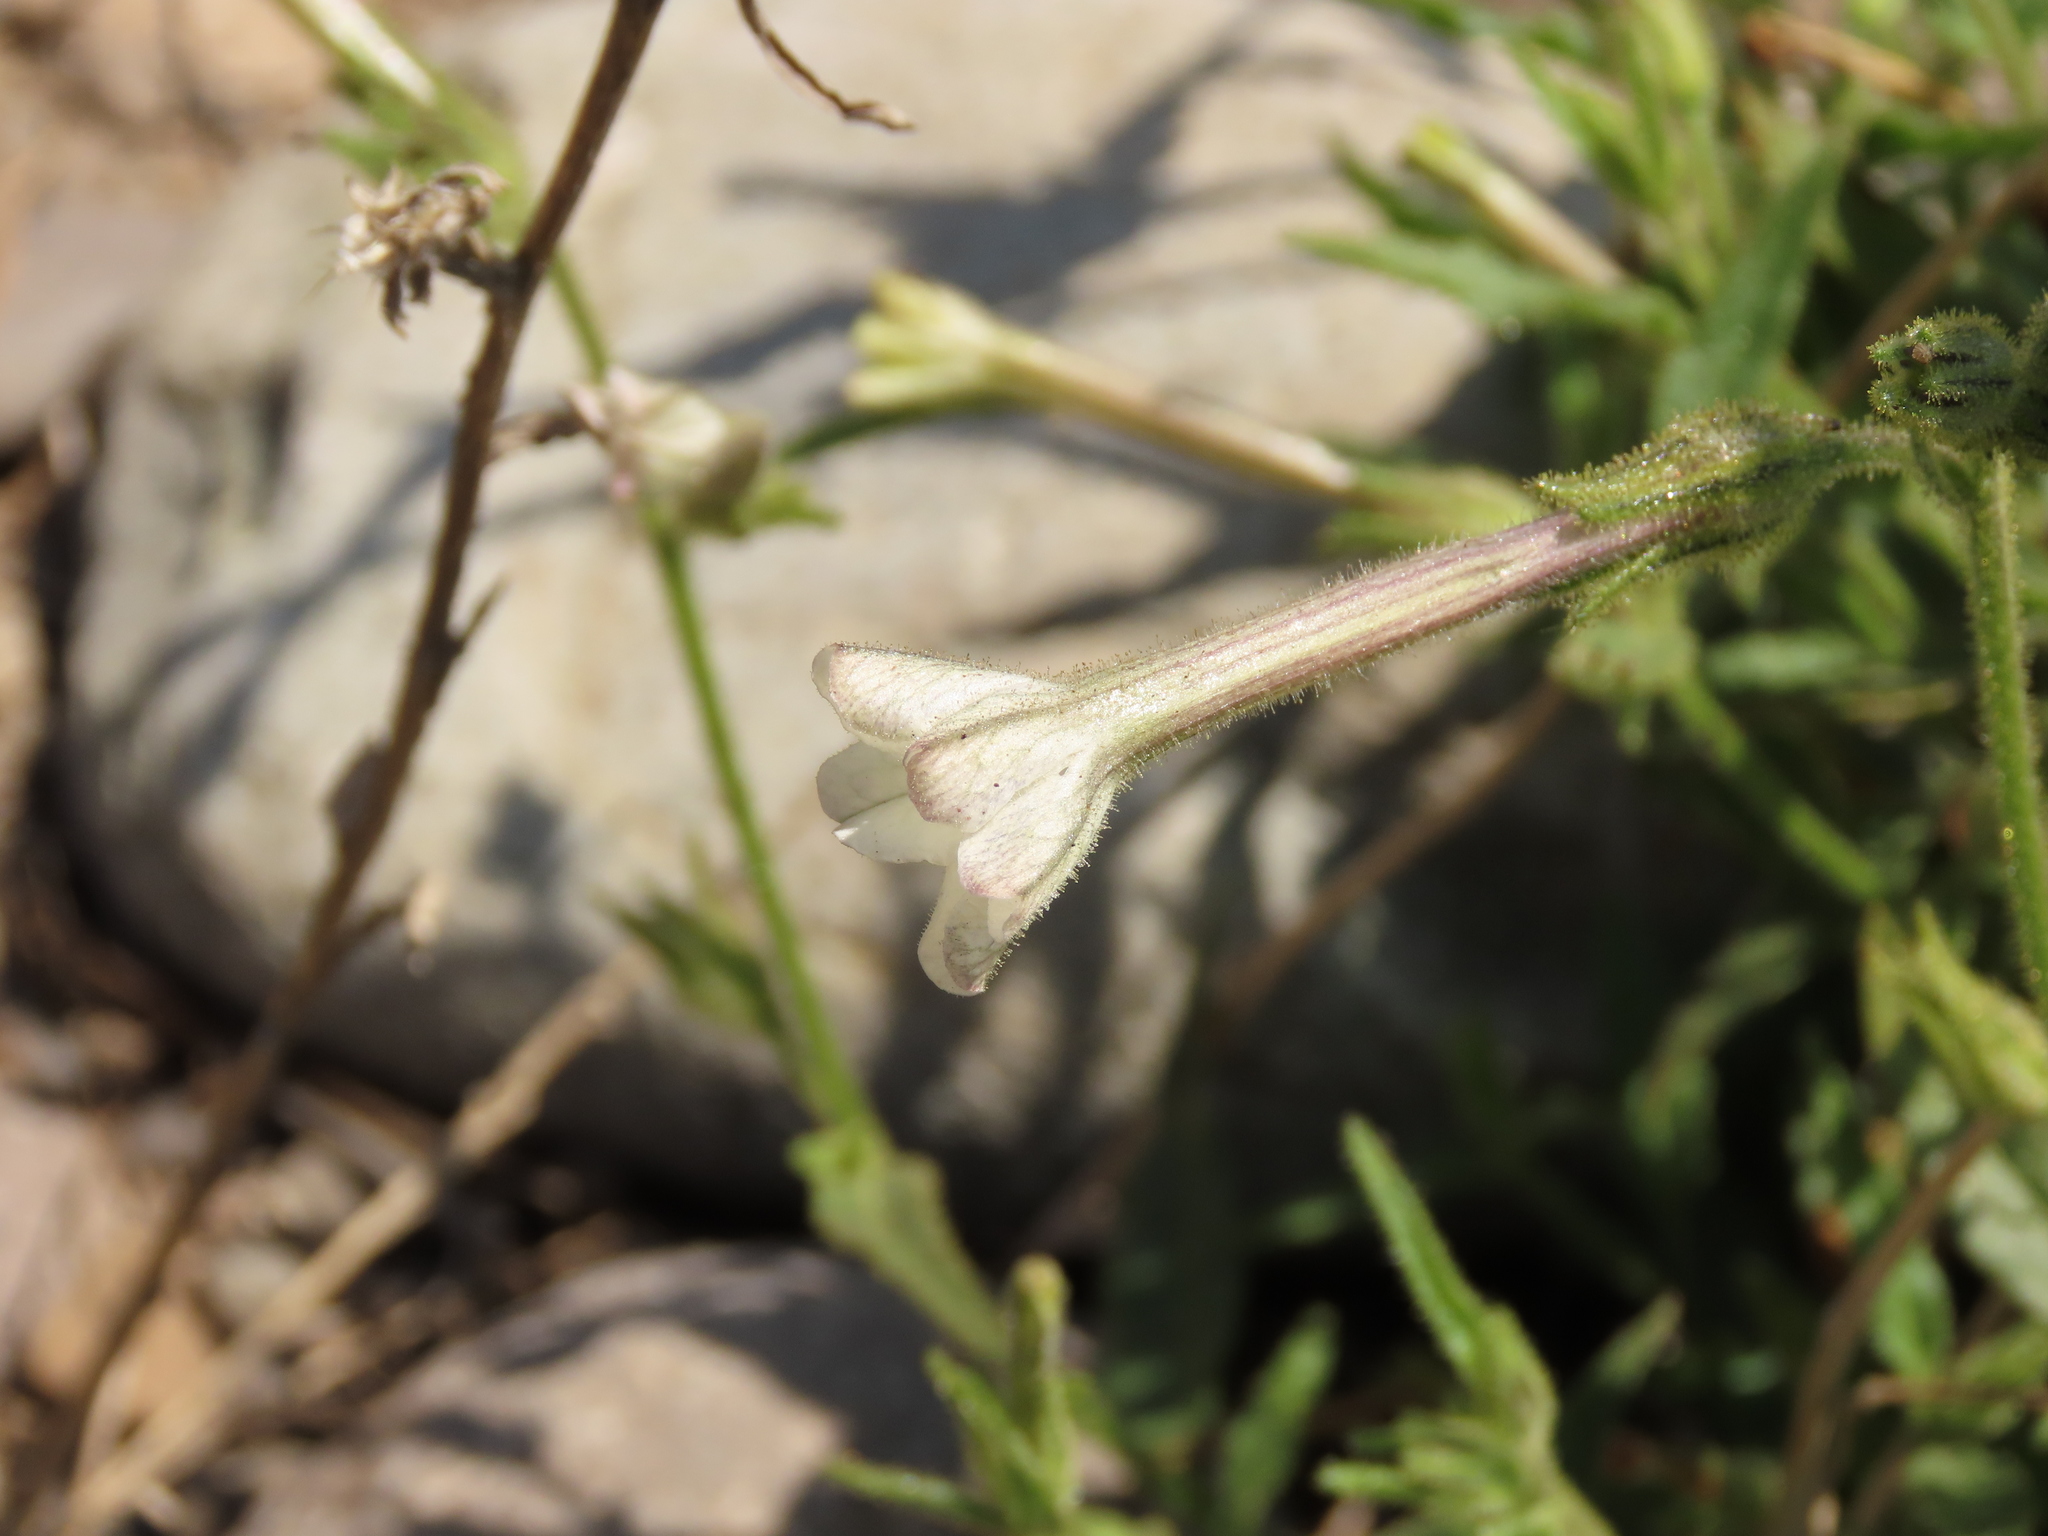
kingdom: Plantae
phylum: Tracheophyta
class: Magnoliopsida
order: Solanales
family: Solanaceae
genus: Nicotiana
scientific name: Nicotiana acuminata
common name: Manyflower tobacco
